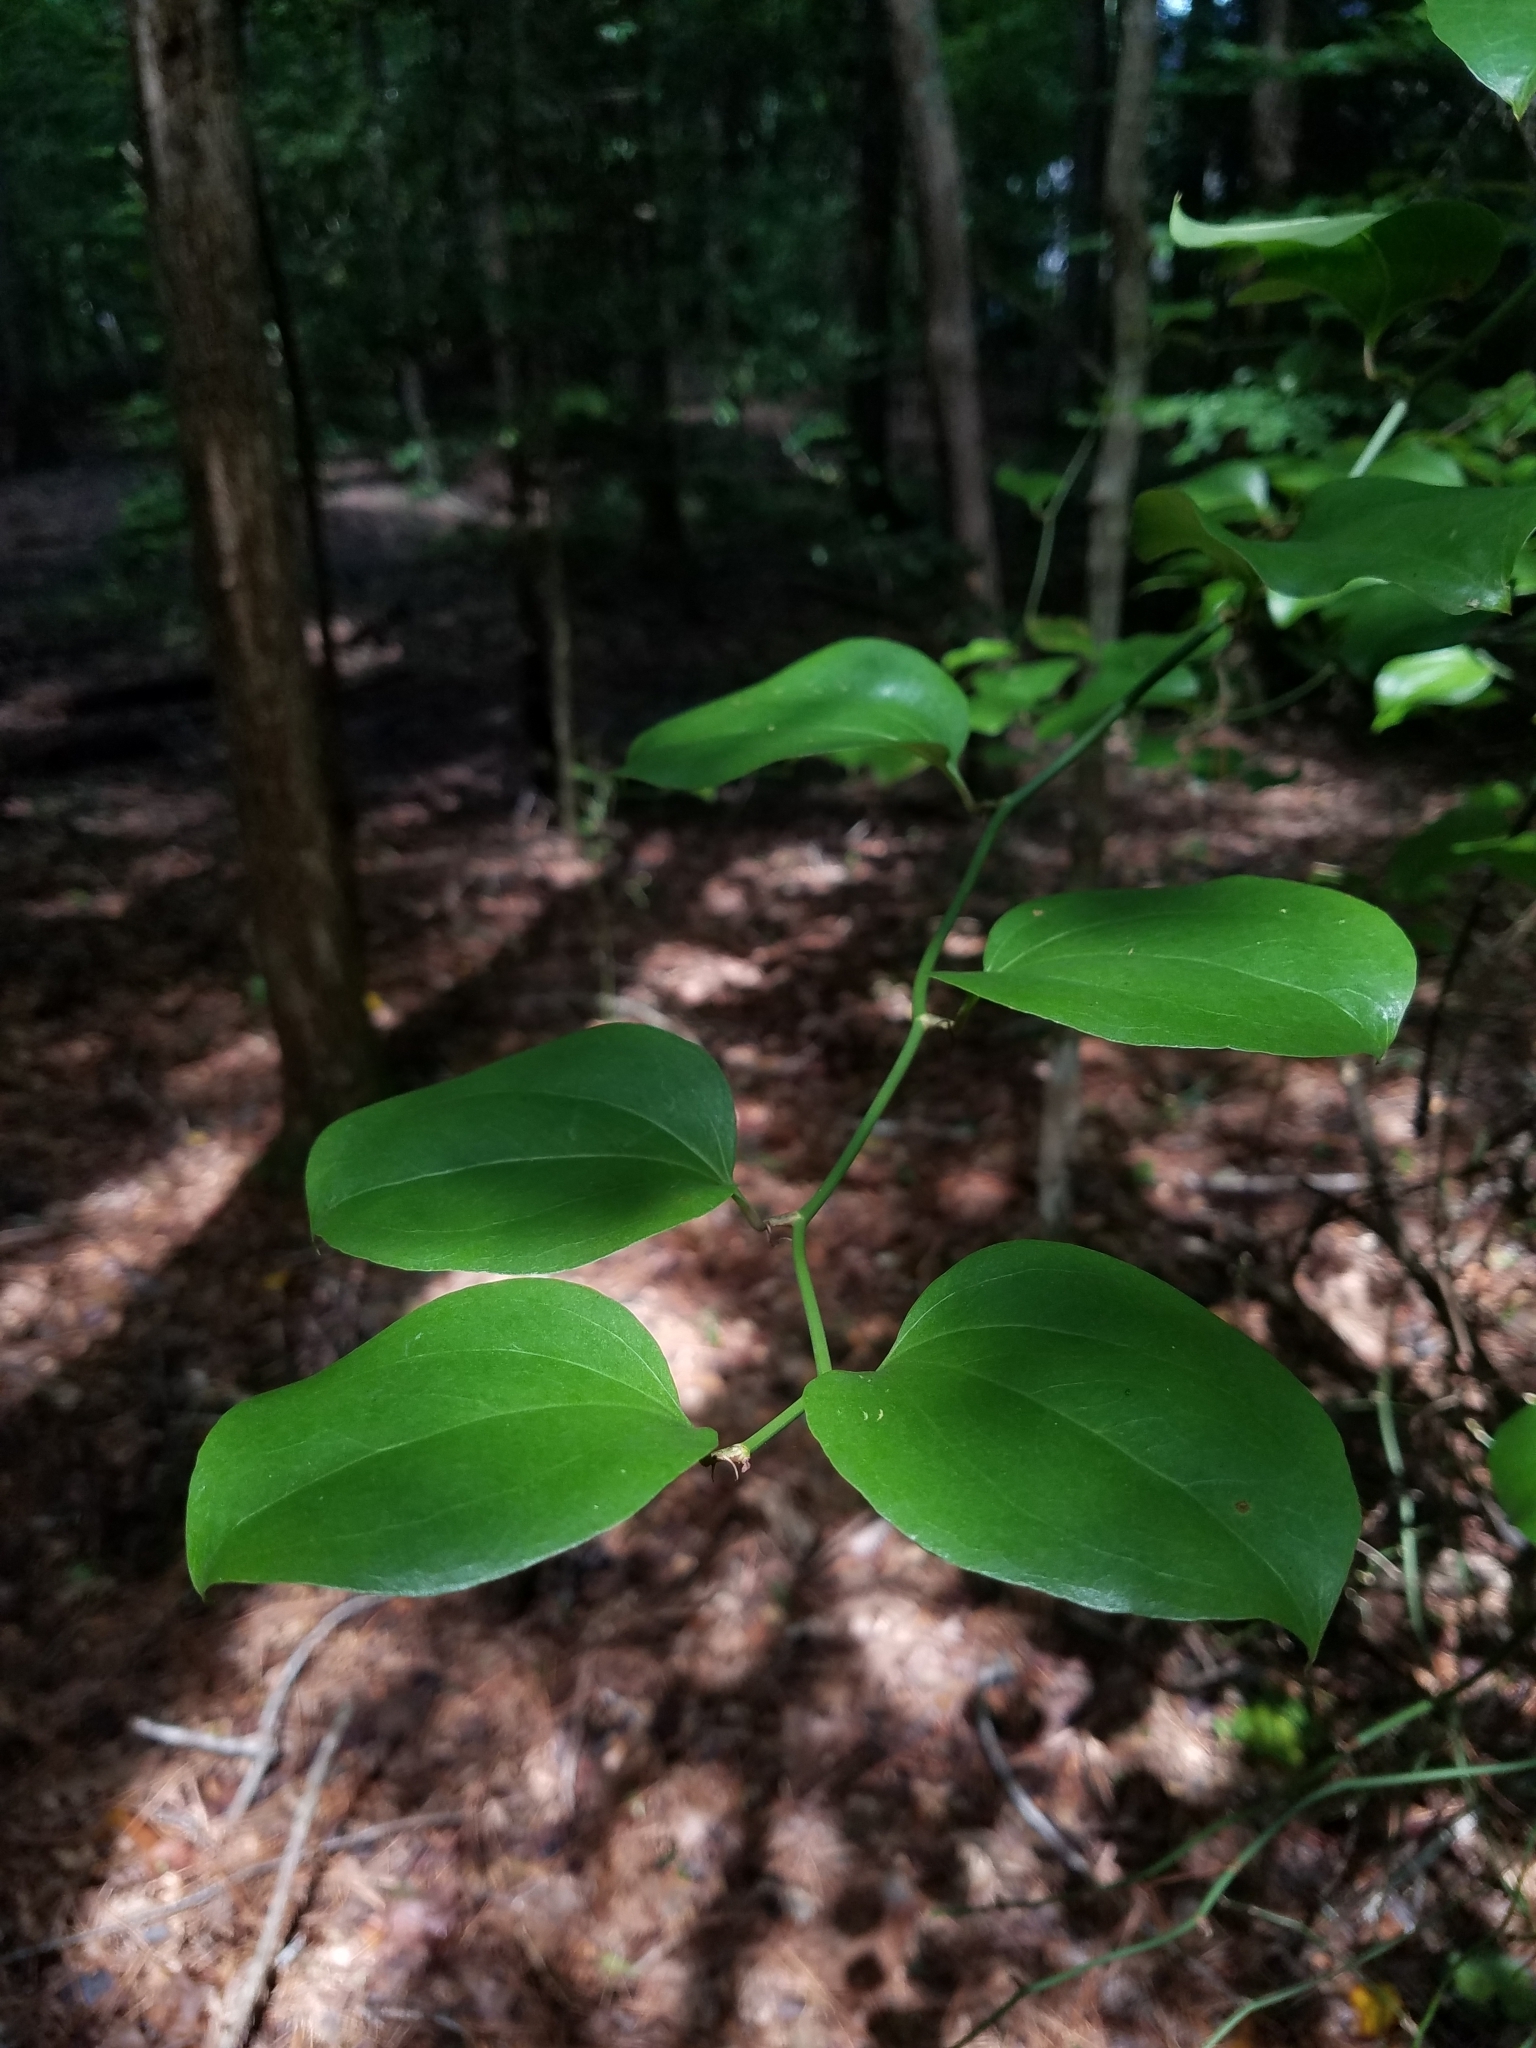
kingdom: Plantae
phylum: Tracheophyta
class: Liliopsida
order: Liliales
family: Smilacaceae
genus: Smilax
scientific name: Smilax rotundifolia
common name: Bullbriar
